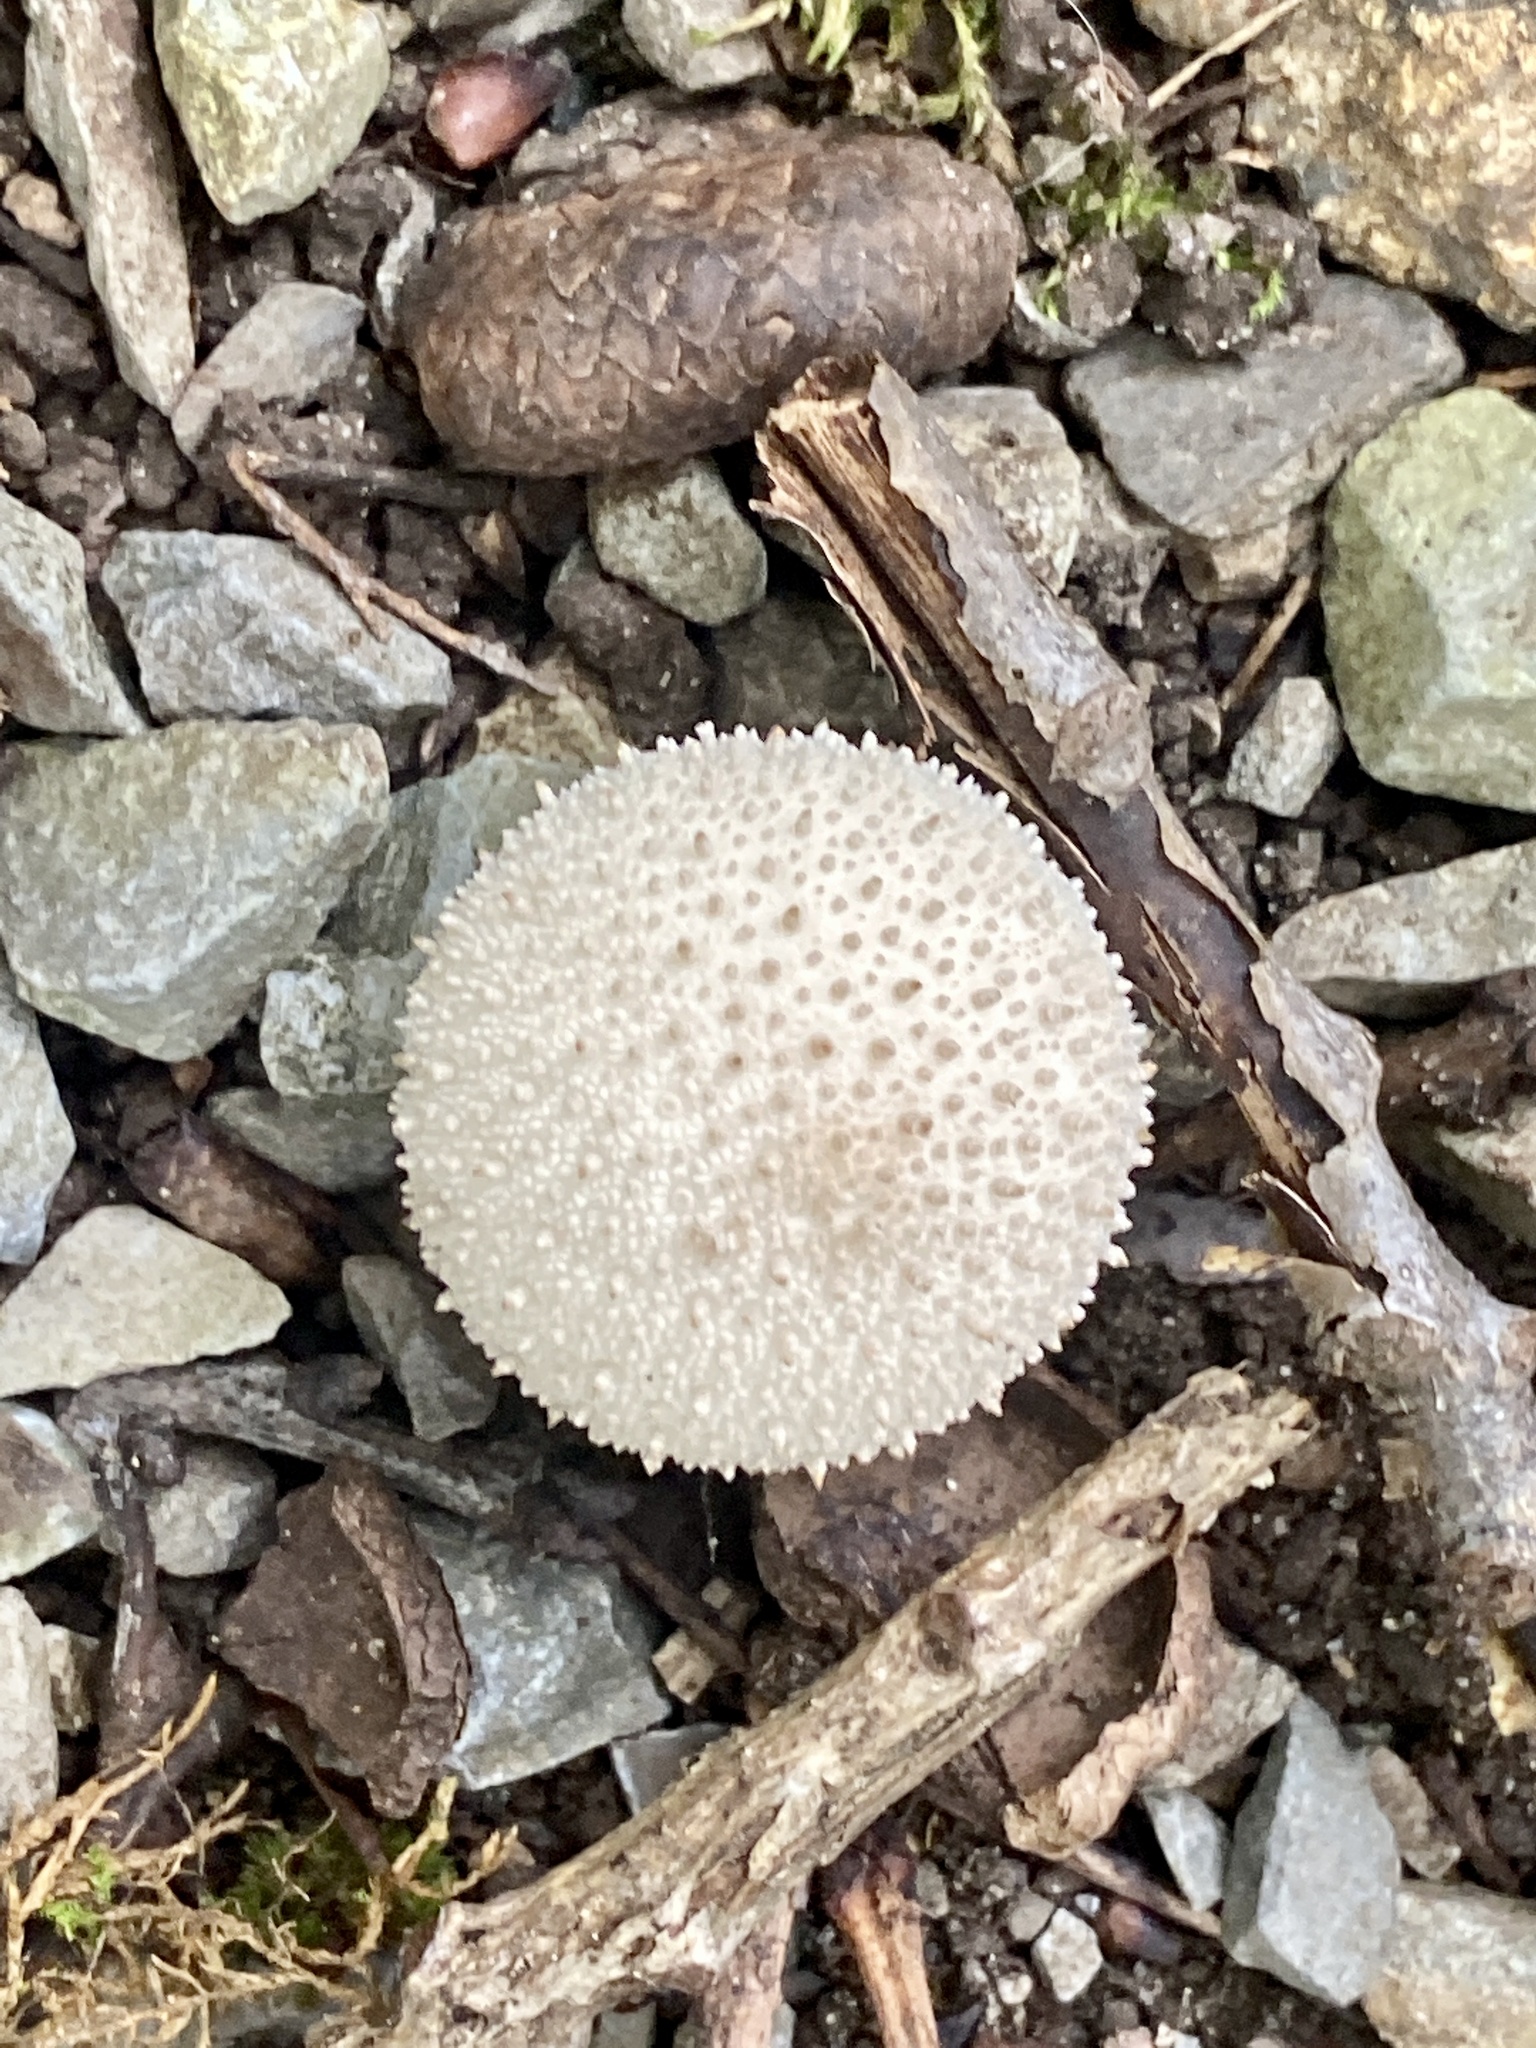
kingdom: Fungi
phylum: Basidiomycota
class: Agaricomycetes
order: Agaricales
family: Lycoperdaceae
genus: Lycoperdon
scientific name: Lycoperdon perlatum
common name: Common puffball
